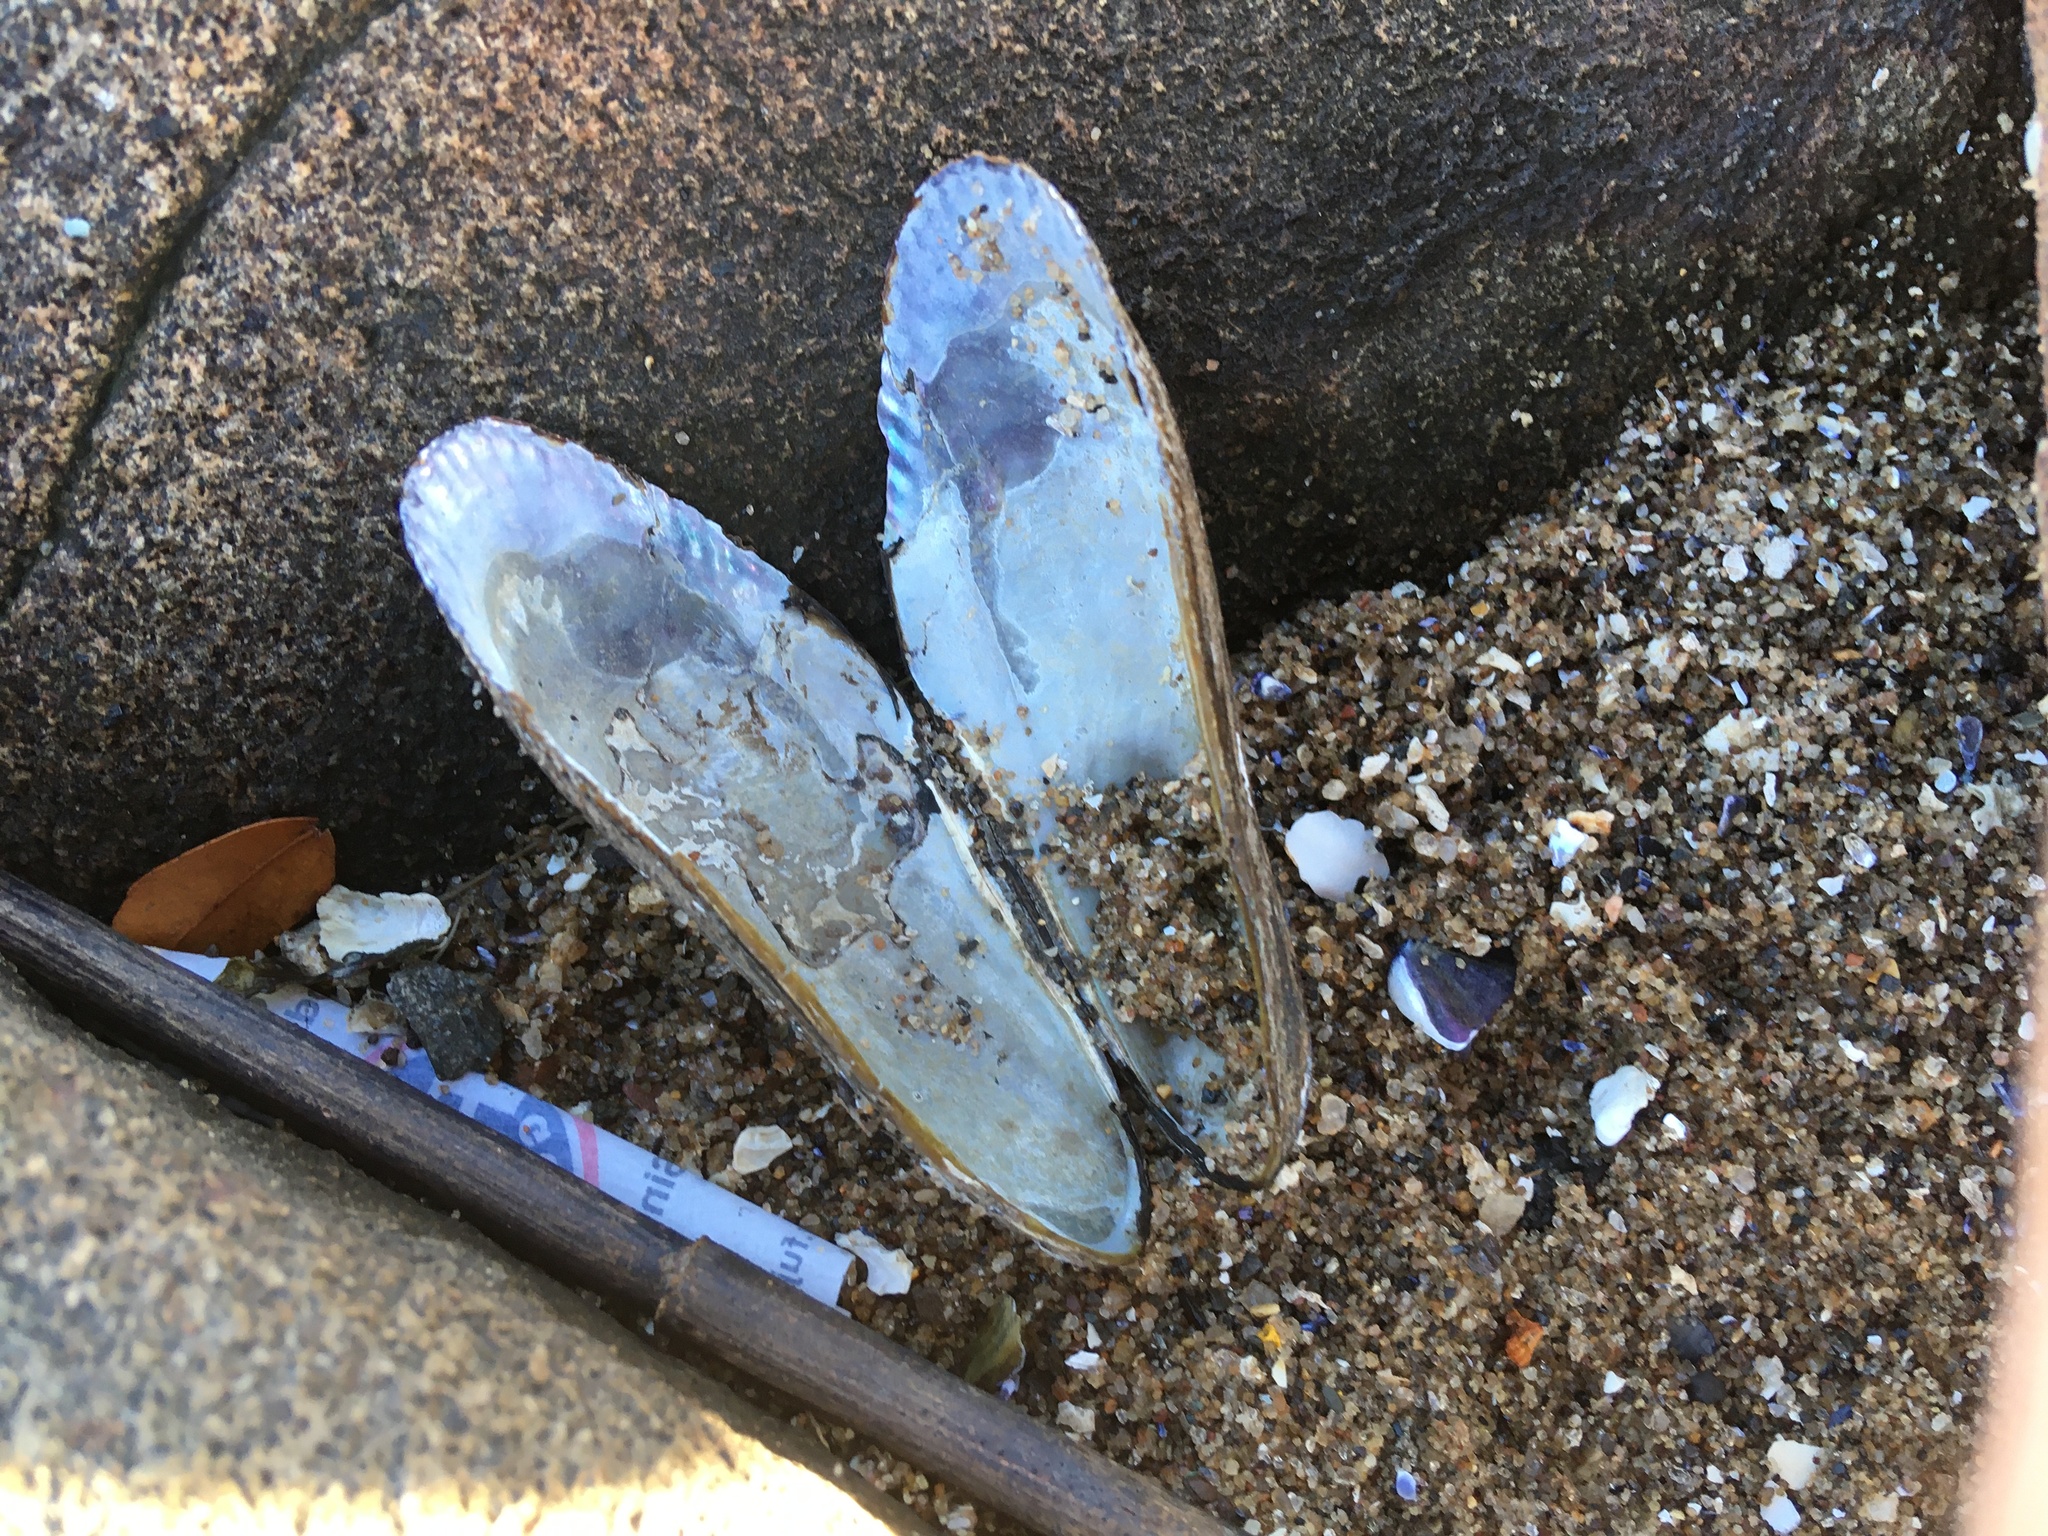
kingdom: Animalia
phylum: Mollusca
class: Bivalvia
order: Mytilida
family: Mytilidae
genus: Geukensia
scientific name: Geukensia demissa
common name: Ribbed mussel
